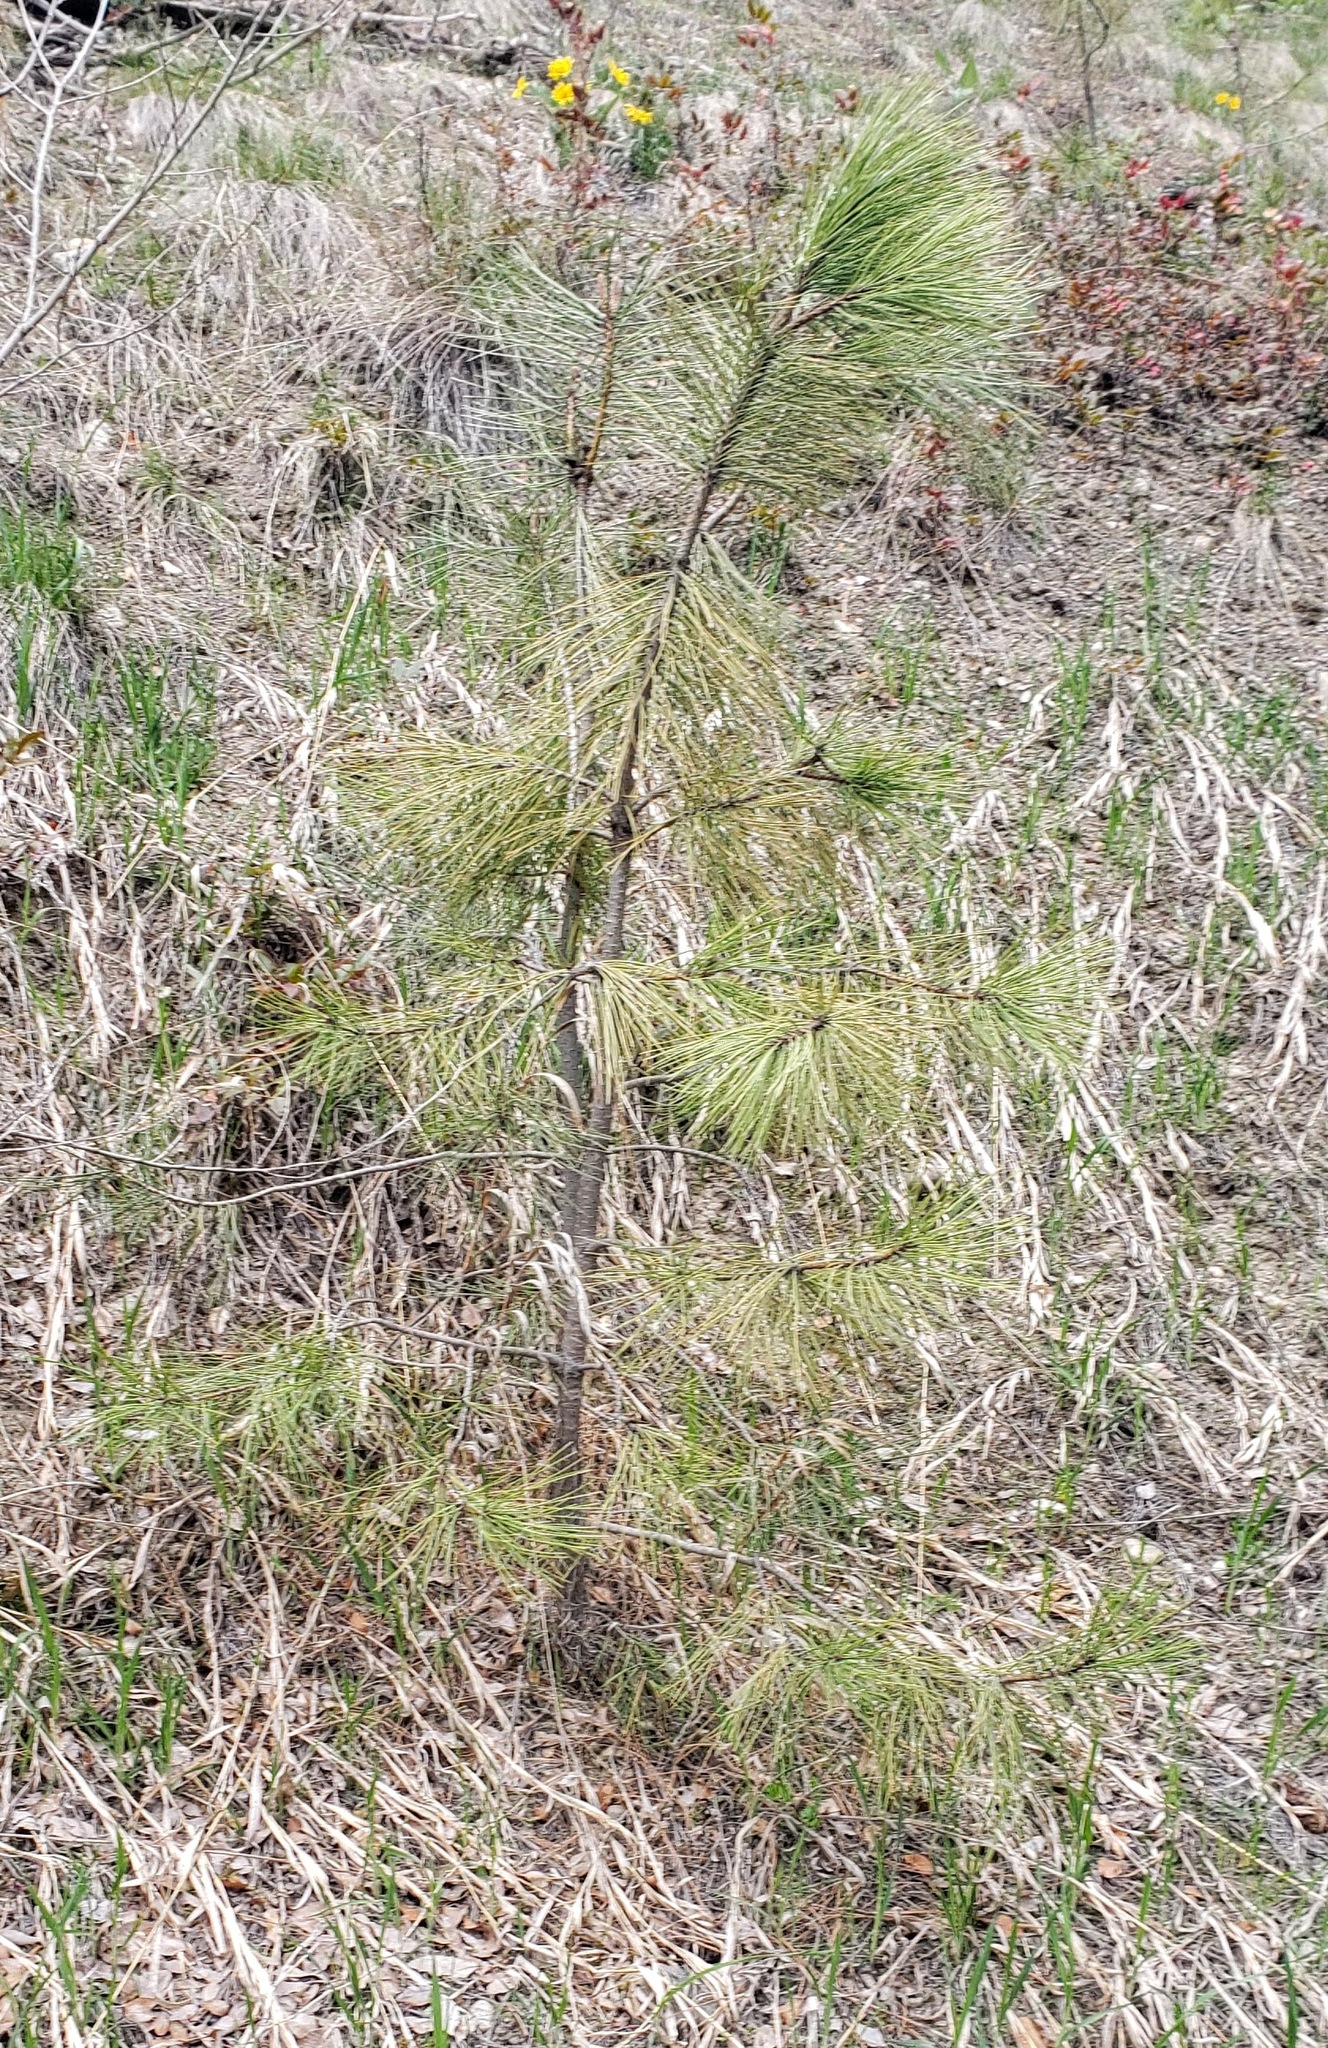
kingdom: Plantae
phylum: Tracheophyta
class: Pinopsida
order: Pinales
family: Pinaceae
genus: Pinus
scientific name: Pinus ponderosa
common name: Western yellow-pine
